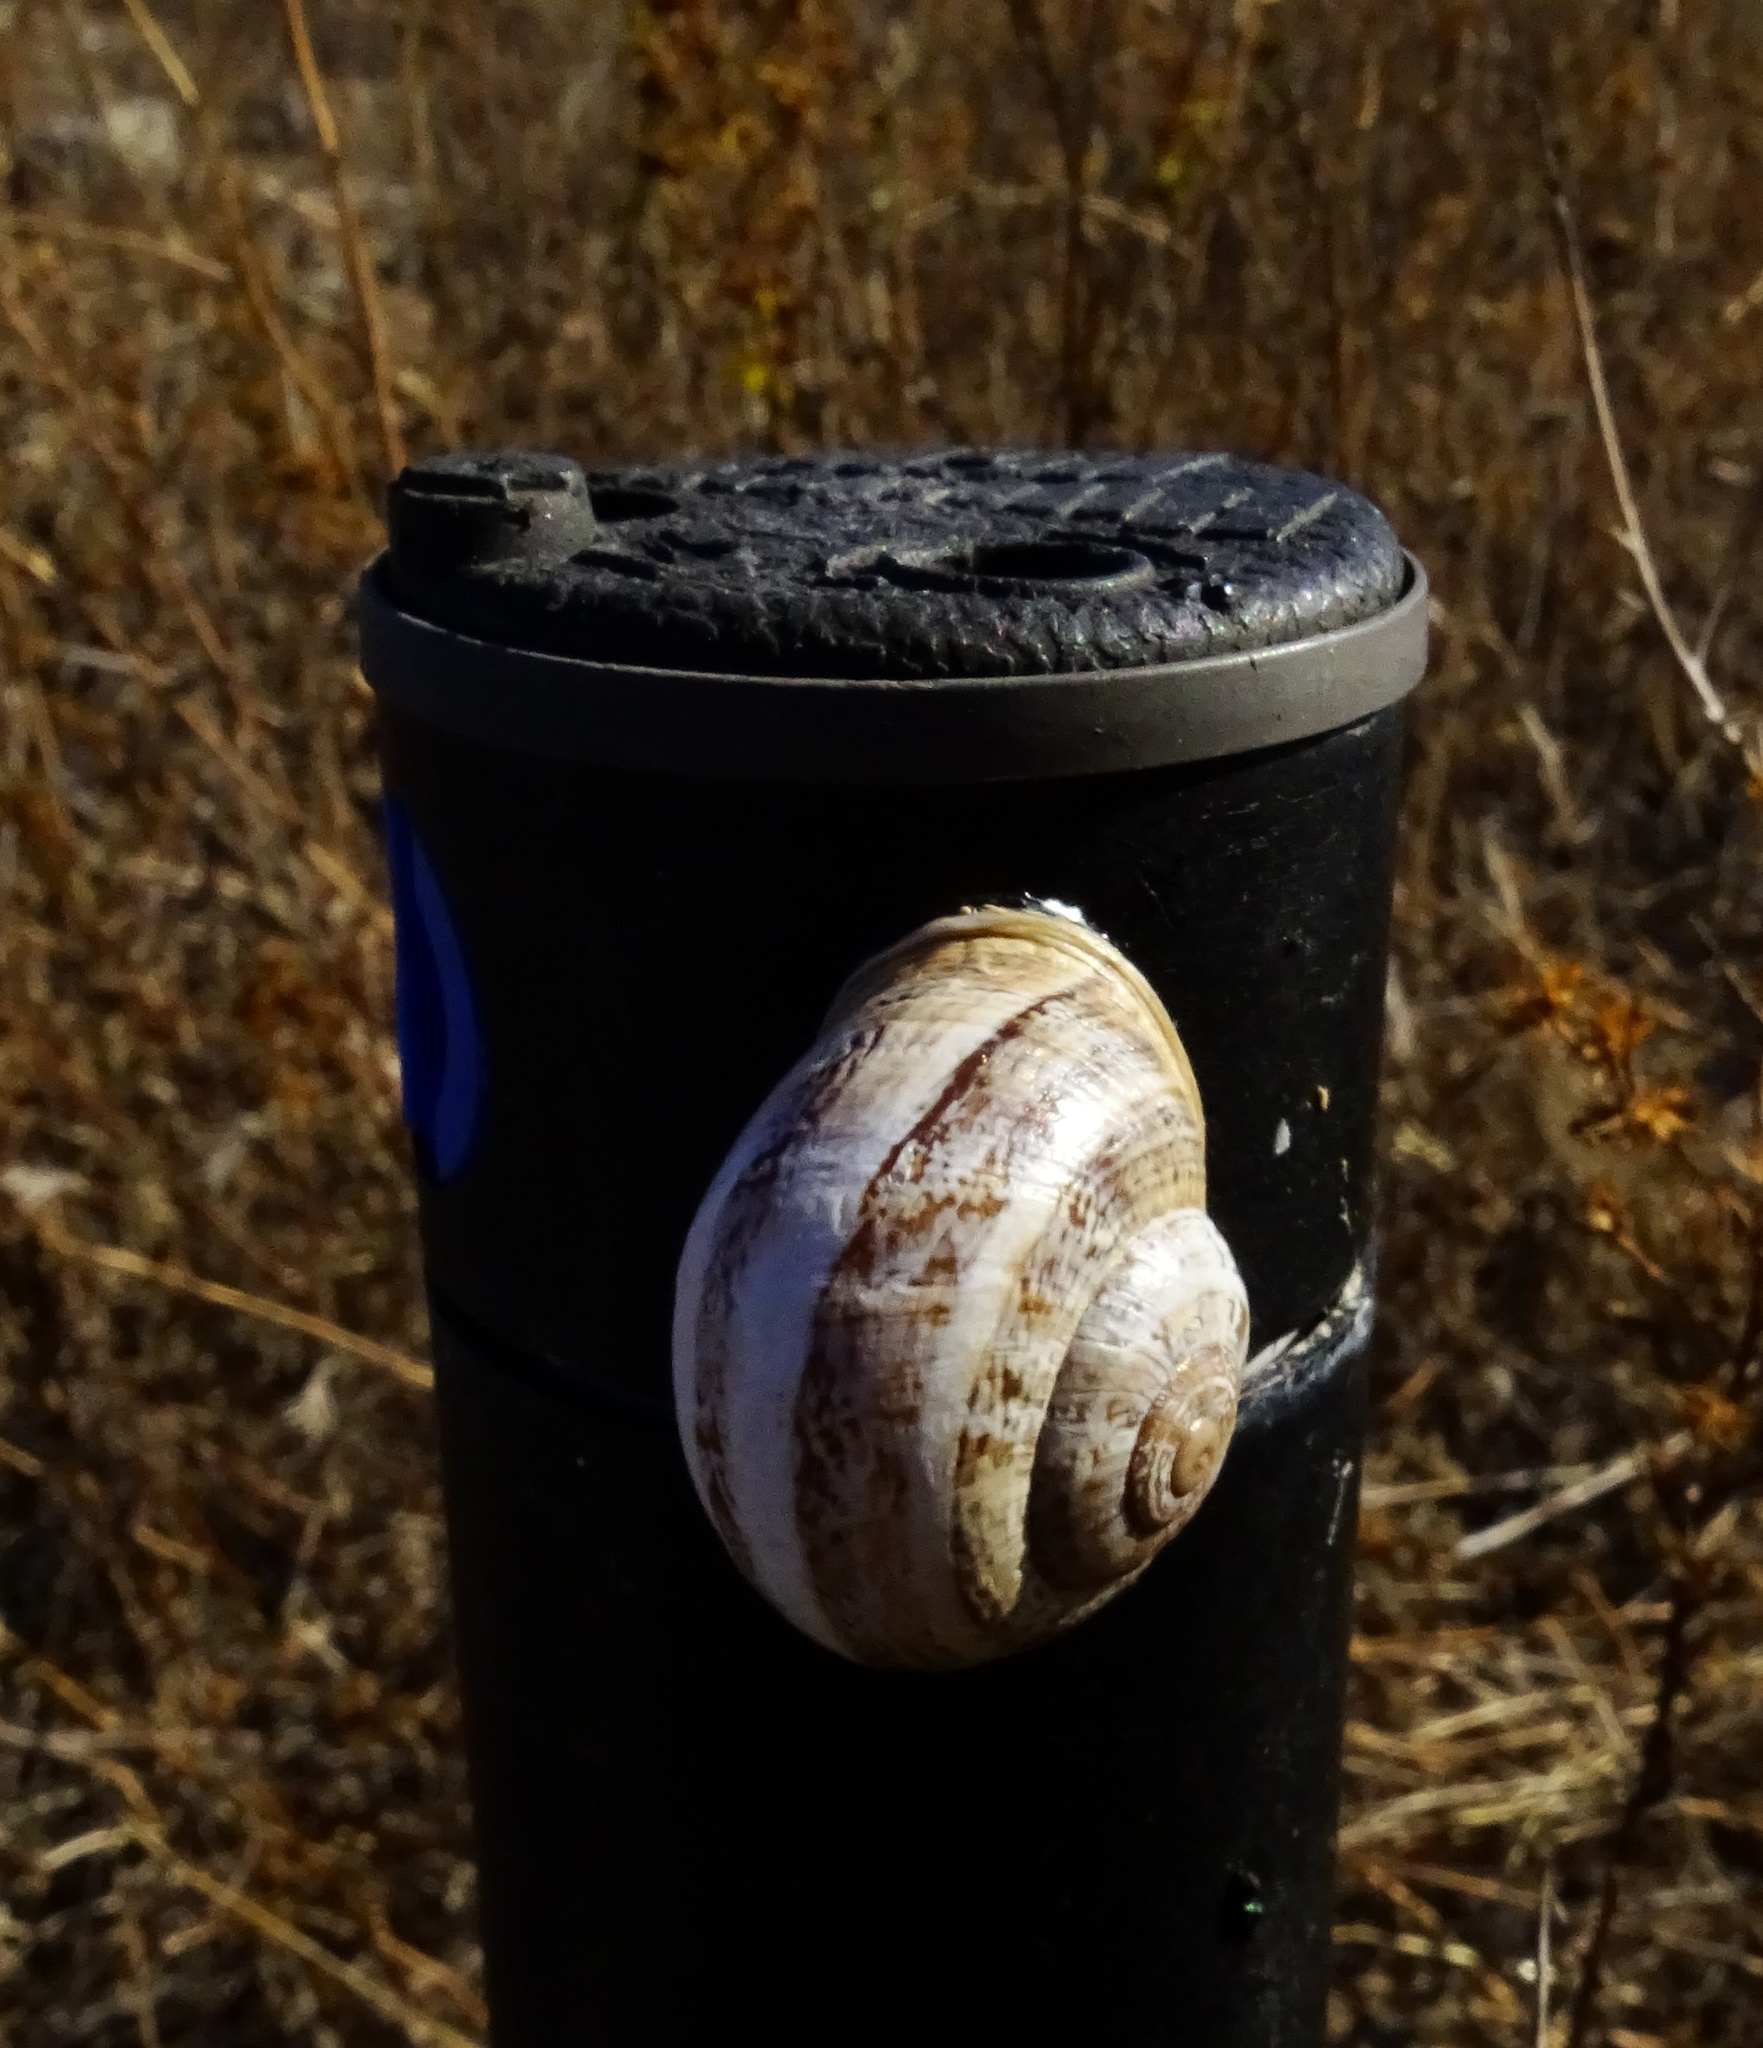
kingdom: Animalia
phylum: Mollusca
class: Gastropoda
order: Stylommatophora
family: Helicidae
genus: Otala
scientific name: Otala lactea
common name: Milk snail
